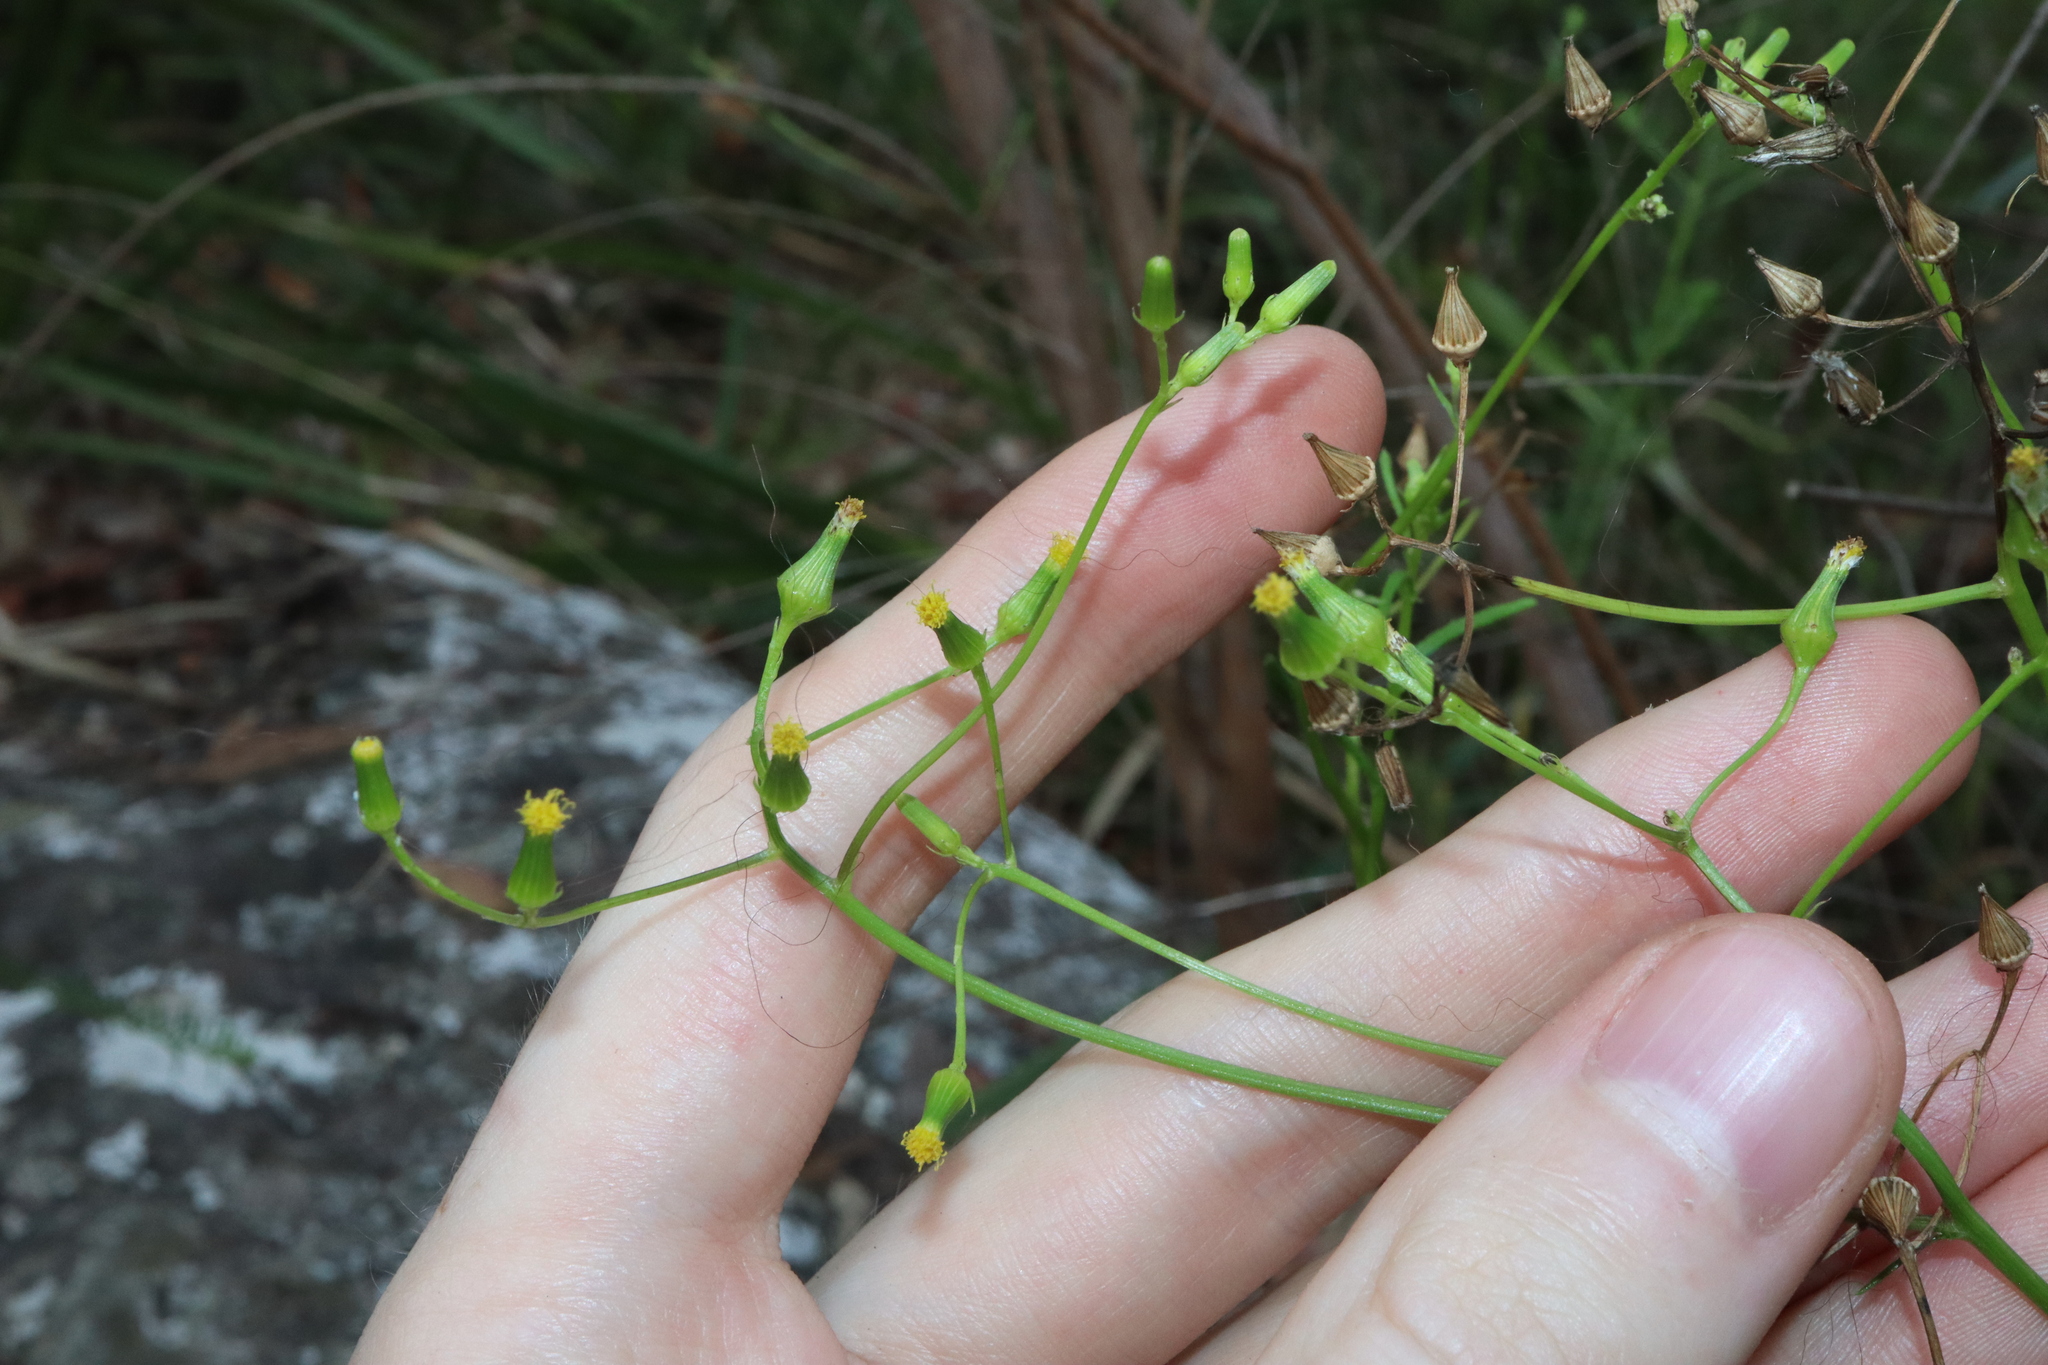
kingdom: Plantae
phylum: Tracheophyta
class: Magnoliopsida
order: Asterales
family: Asteraceae
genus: Senecio
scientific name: Senecio hispidulus
